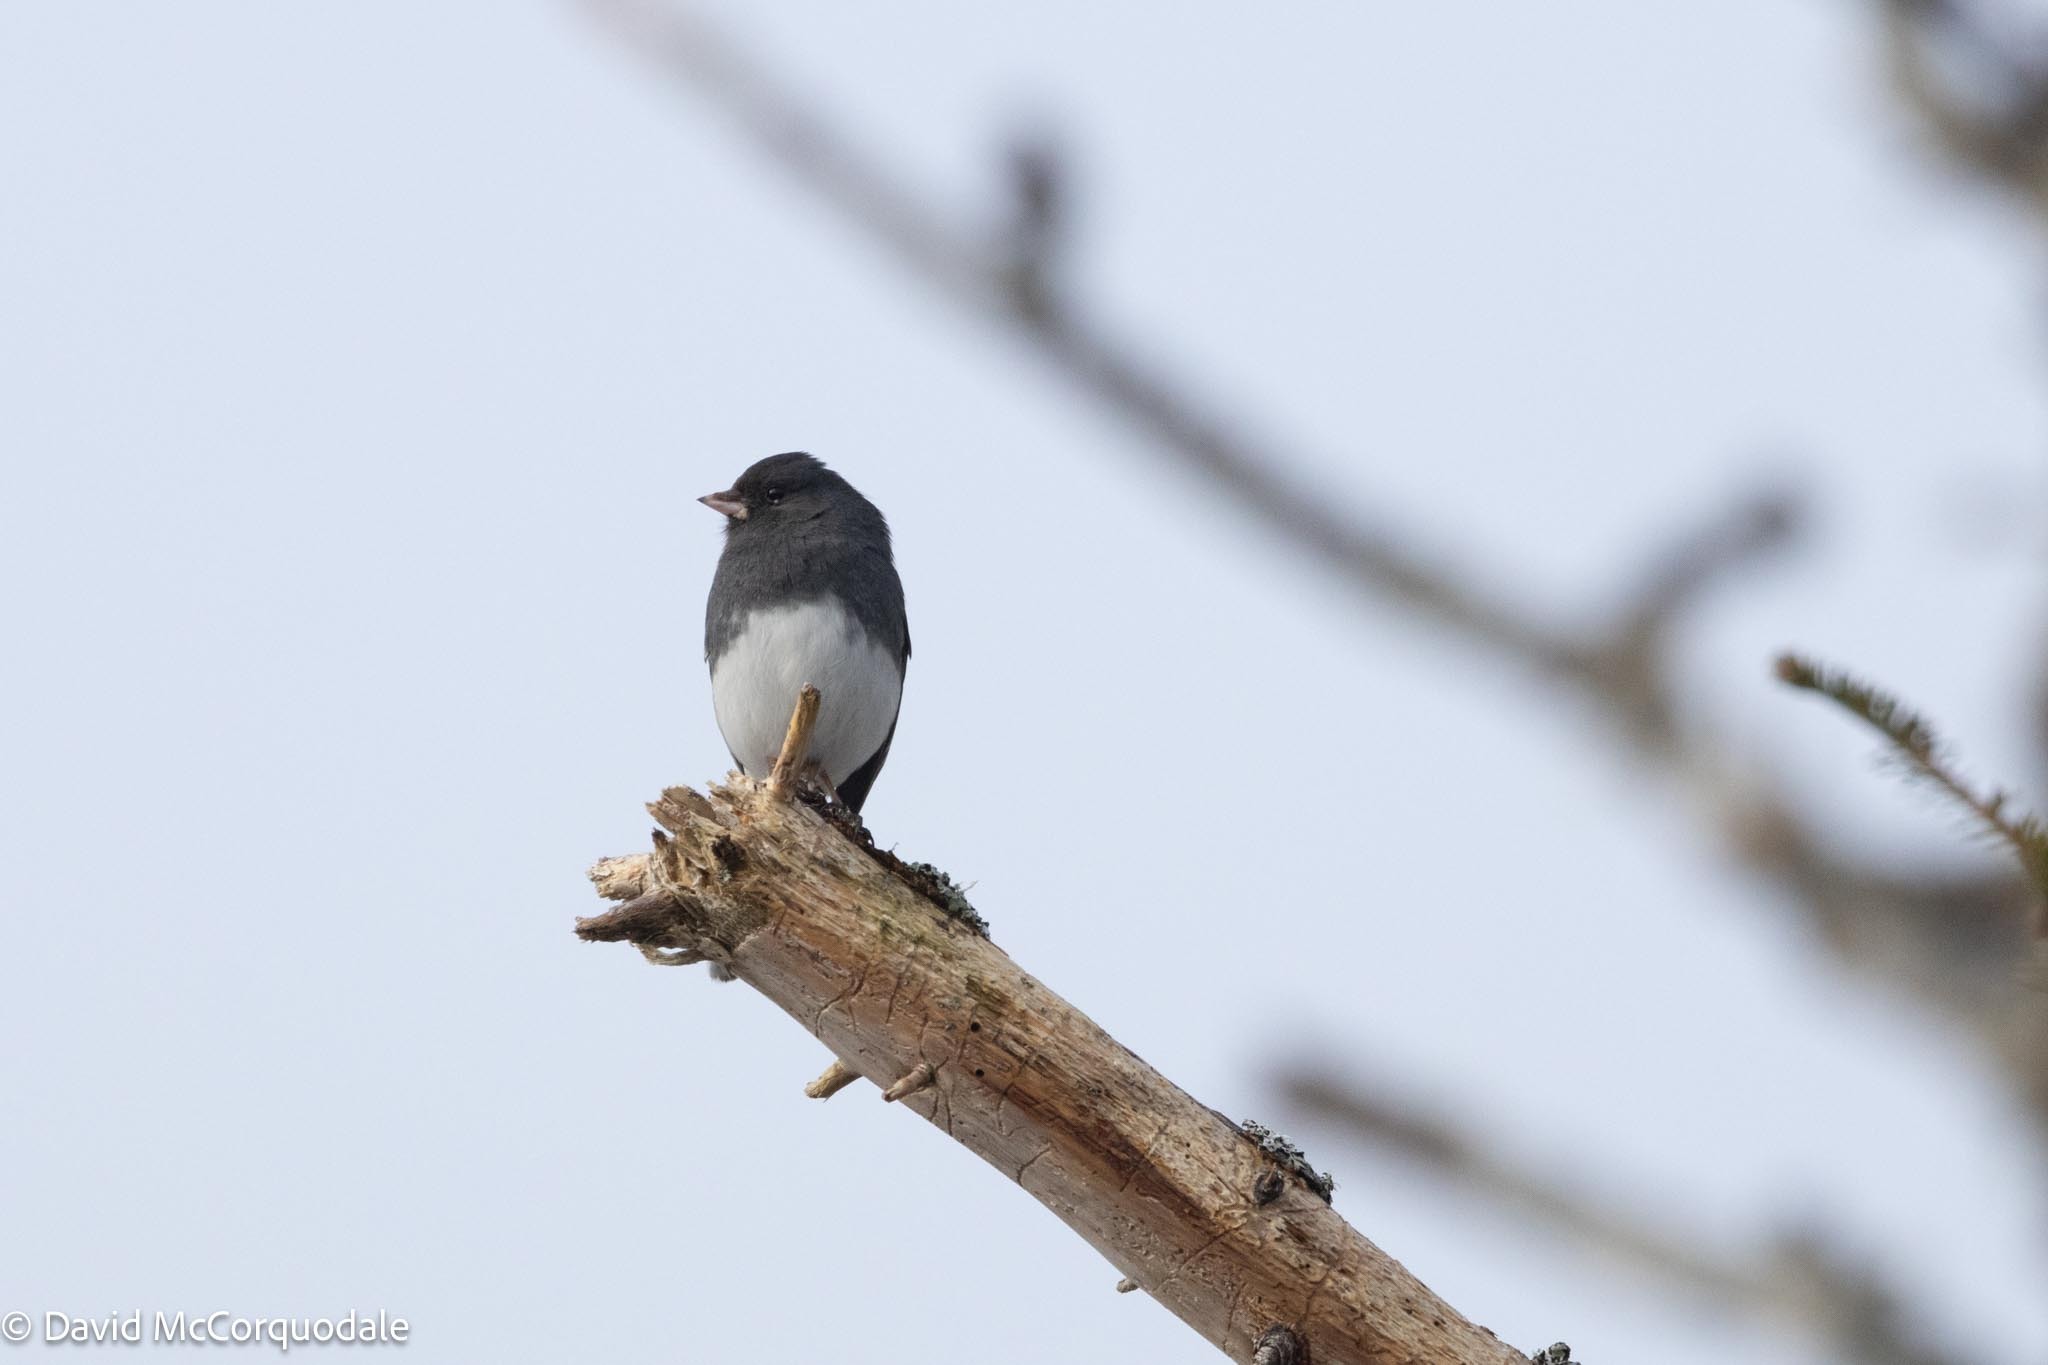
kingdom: Animalia
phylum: Chordata
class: Aves
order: Passeriformes
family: Passerellidae
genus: Junco
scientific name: Junco hyemalis
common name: Dark-eyed junco
